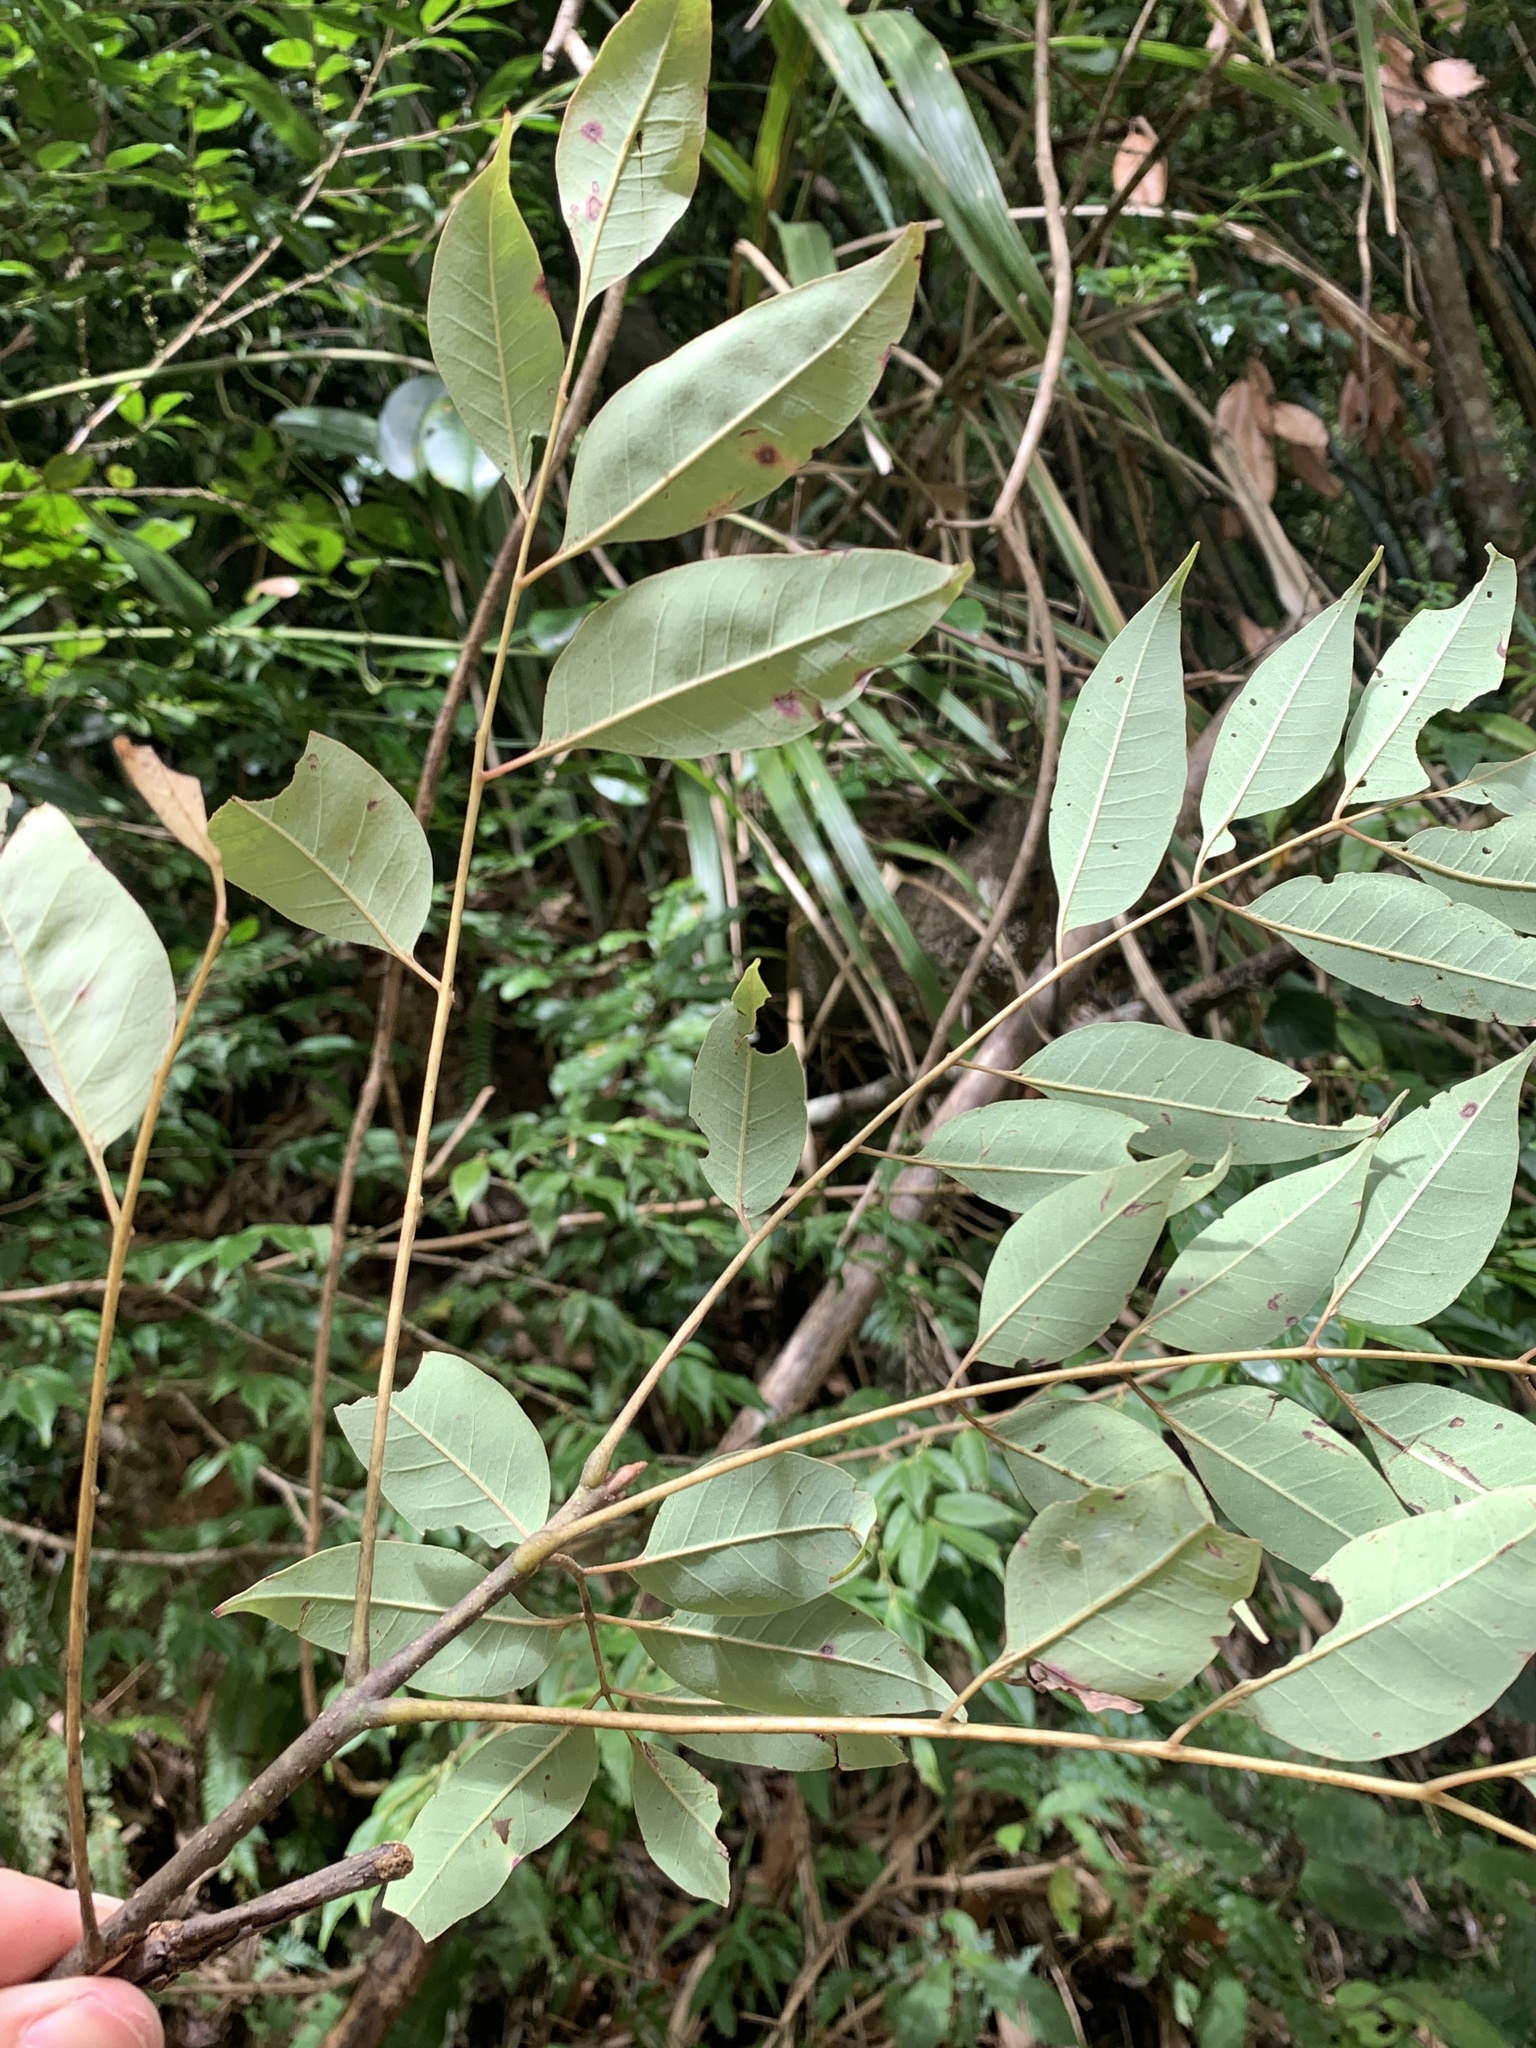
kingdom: Plantae
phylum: Tracheophyta
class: Magnoliopsida
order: Sapindales
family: Rutaceae
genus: Tetradium
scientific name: Tetradium glabrifolium
